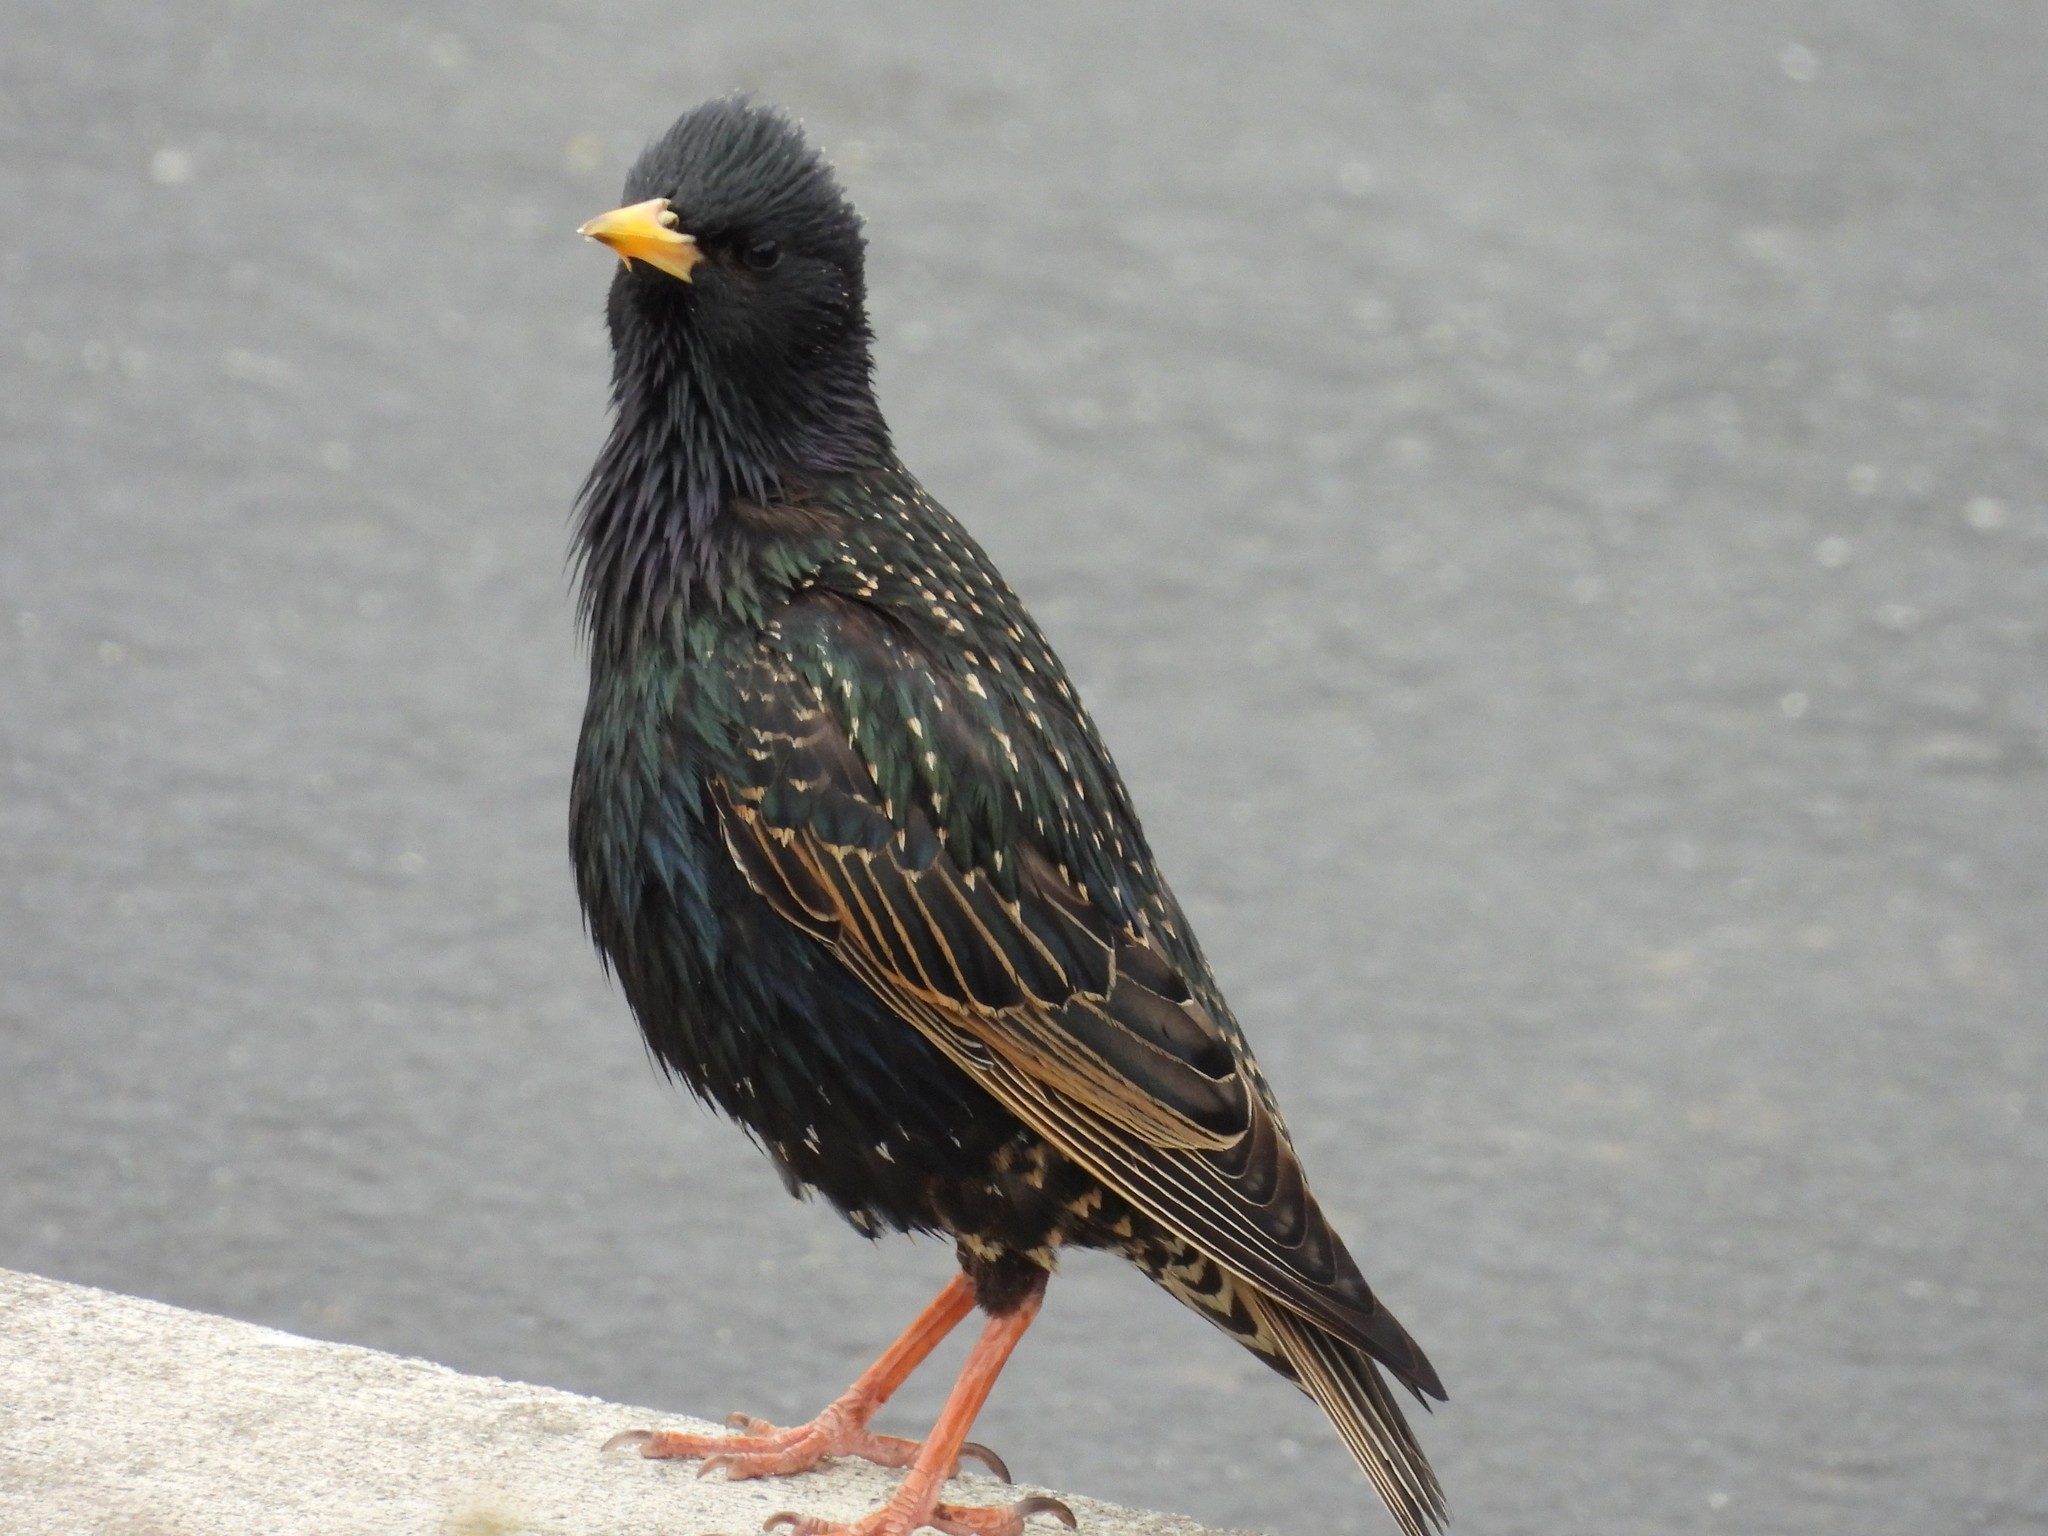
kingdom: Animalia
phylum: Chordata
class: Aves
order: Passeriformes
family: Sturnidae
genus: Sturnus
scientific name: Sturnus vulgaris
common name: Common starling
